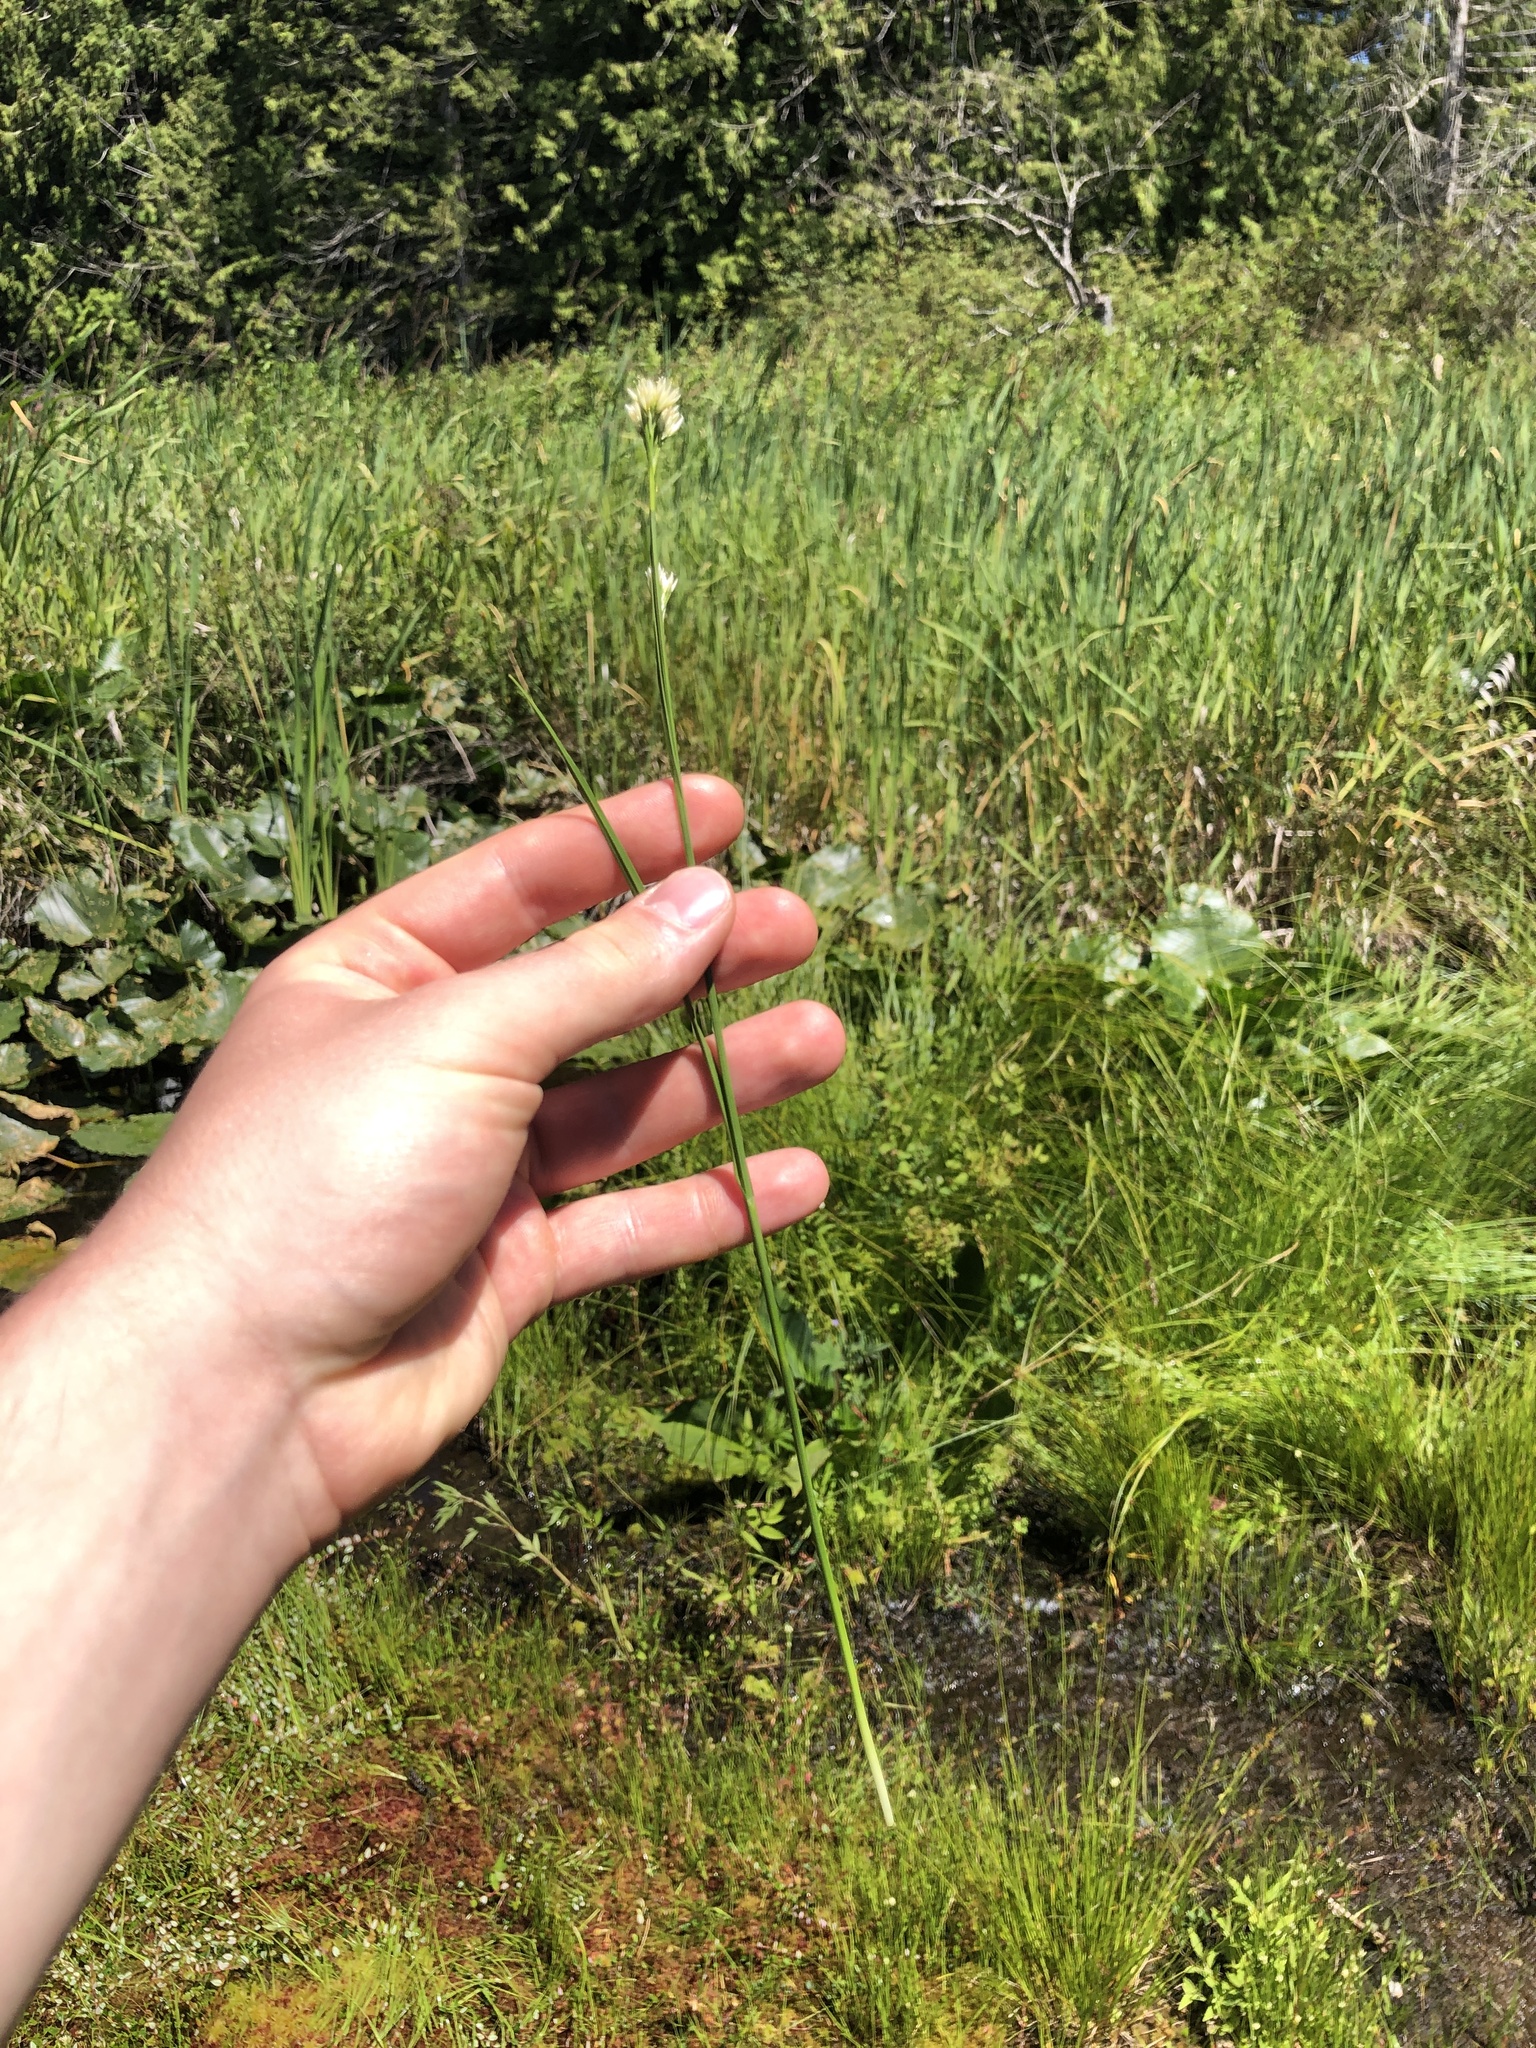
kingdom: Plantae
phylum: Tracheophyta
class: Liliopsida
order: Poales
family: Cyperaceae
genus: Rhynchospora
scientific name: Rhynchospora alba
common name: White beak-sedge
